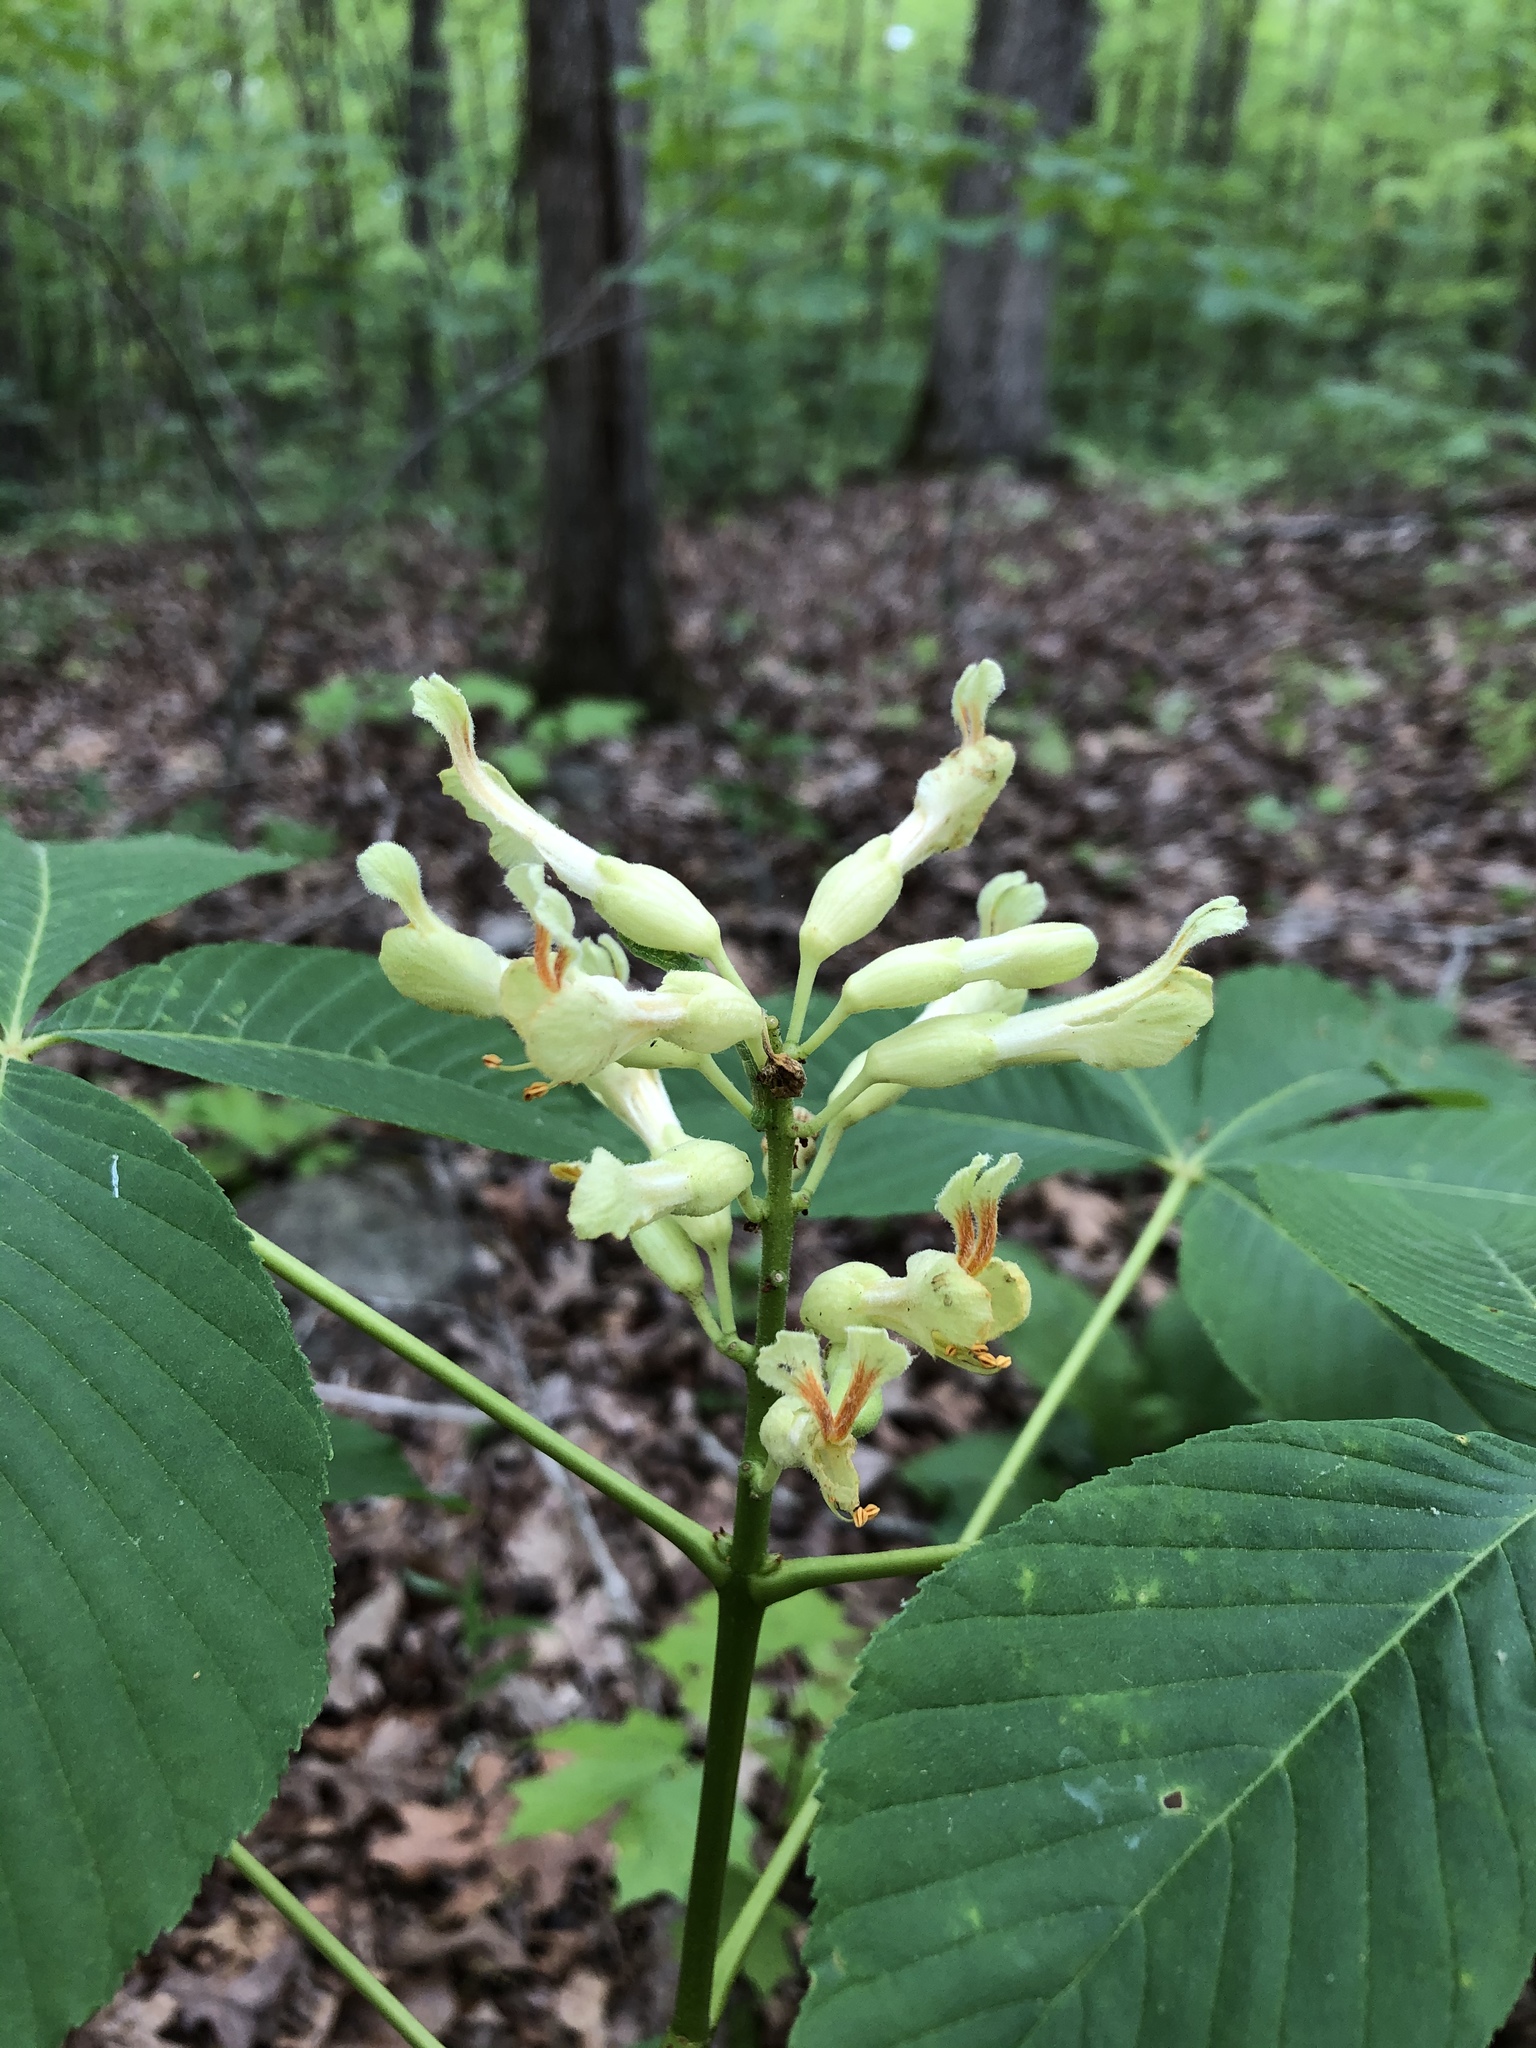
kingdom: Plantae
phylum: Tracheophyta
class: Magnoliopsida
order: Sapindales
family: Sapindaceae
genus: Aesculus
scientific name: Aesculus sylvatica
